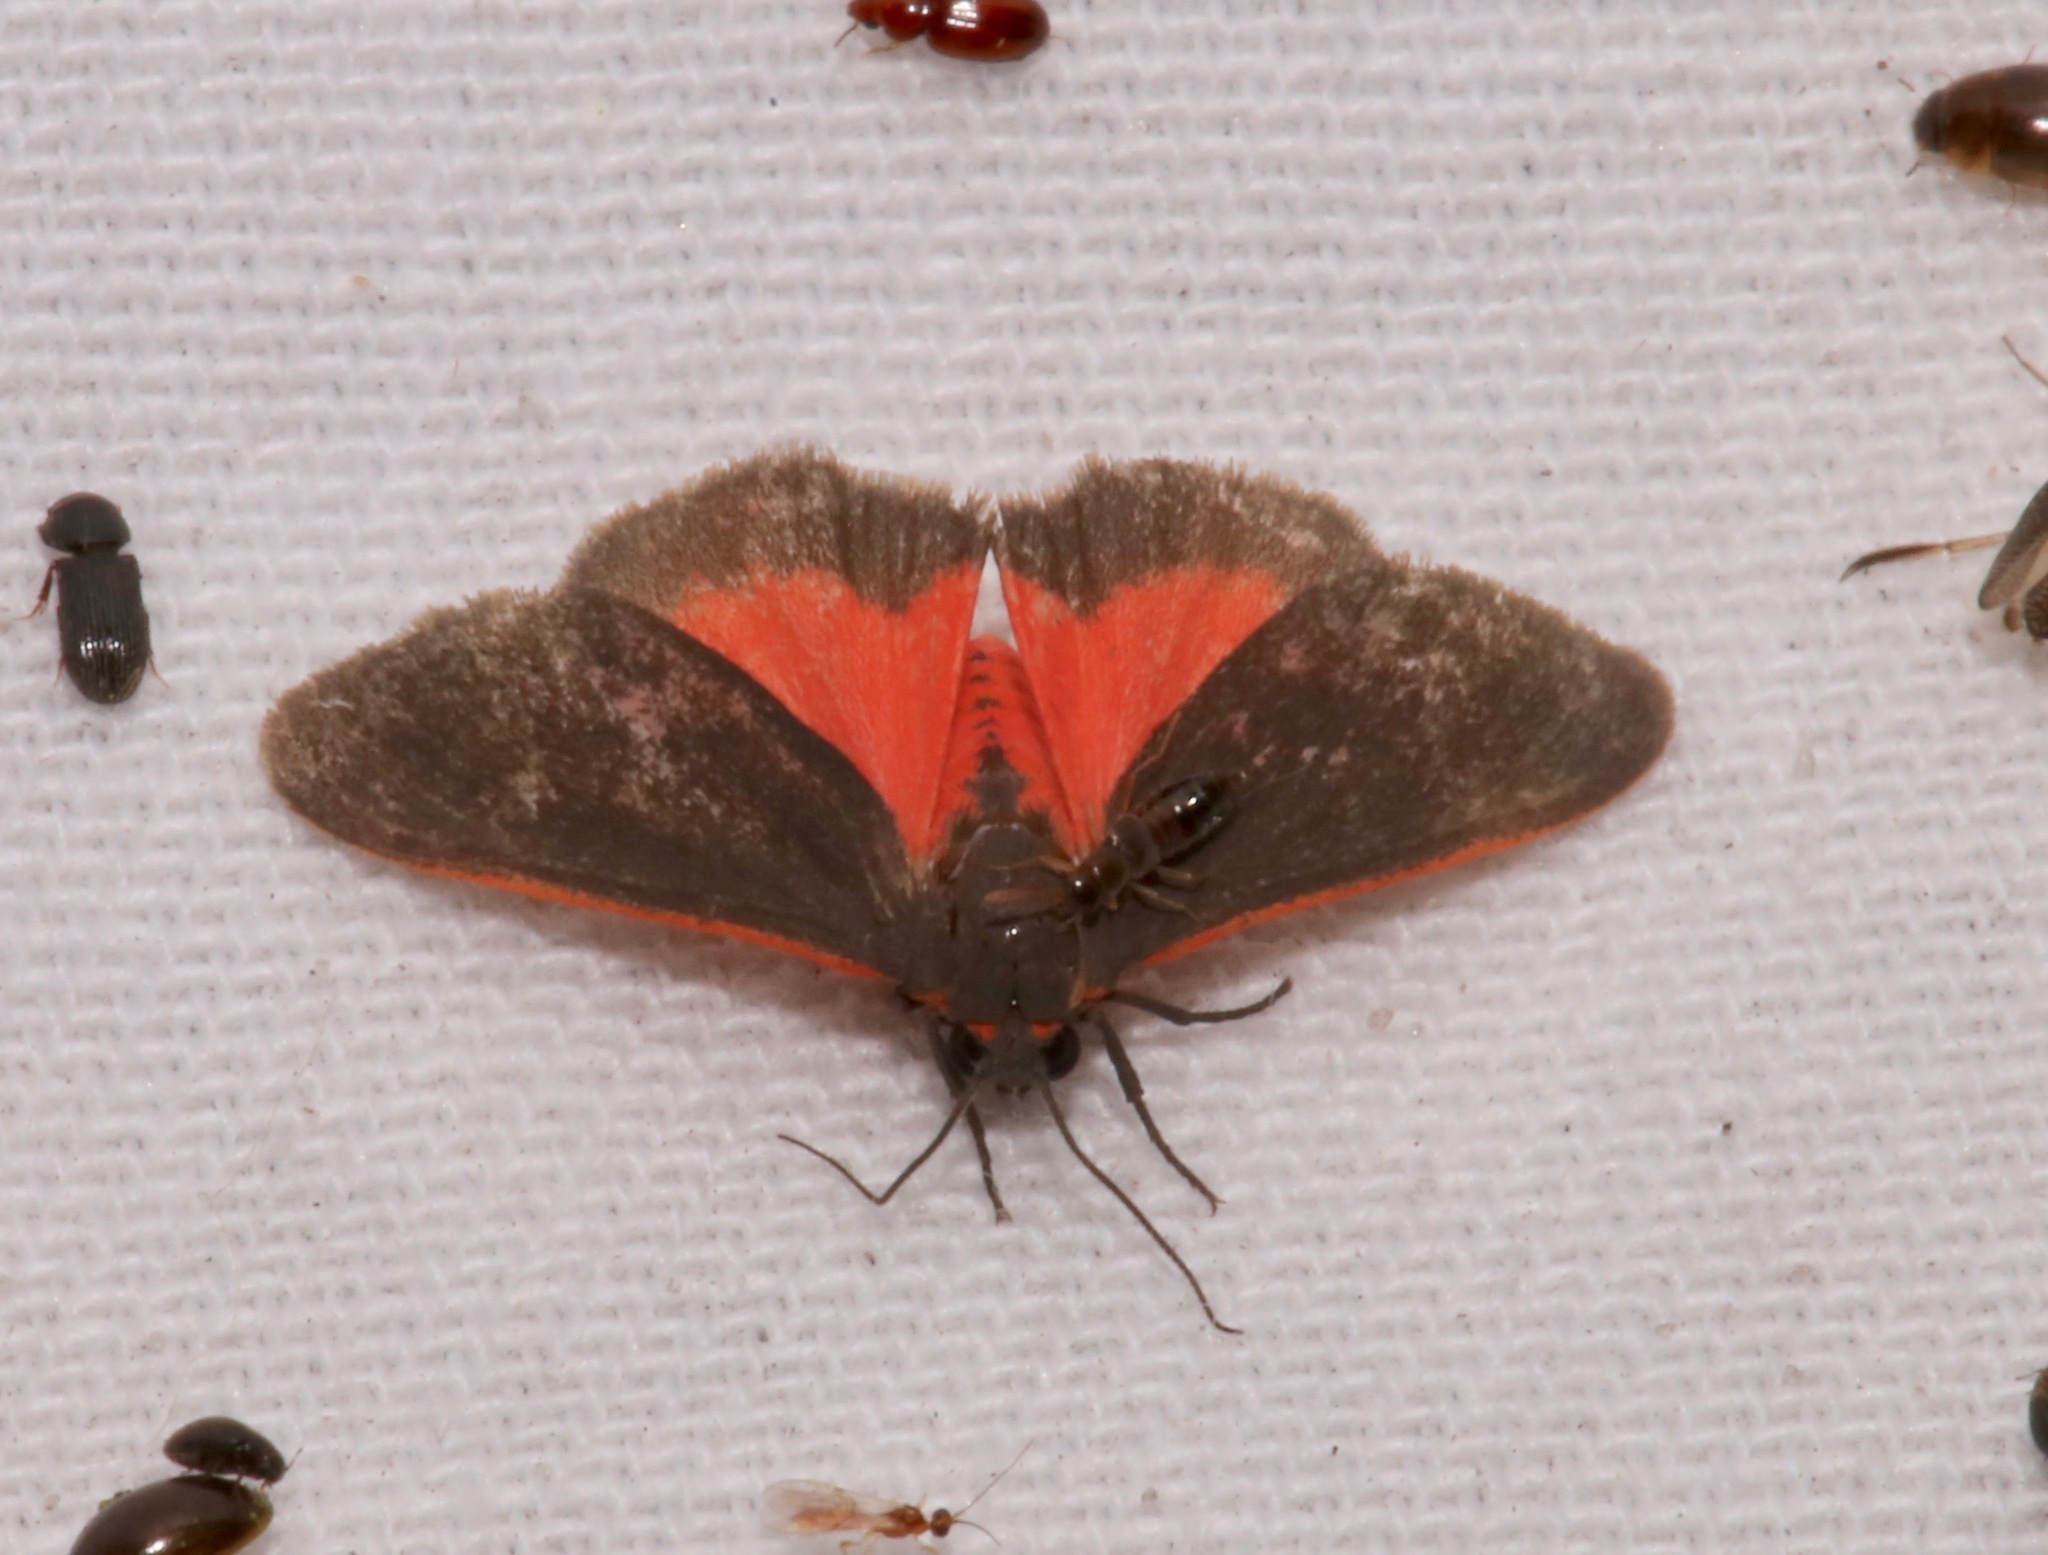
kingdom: Animalia
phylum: Arthropoda
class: Insecta
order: Lepidoptera
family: Erebidae
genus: Virbia
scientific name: Virbia laeta
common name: Joyful holomelina moth
